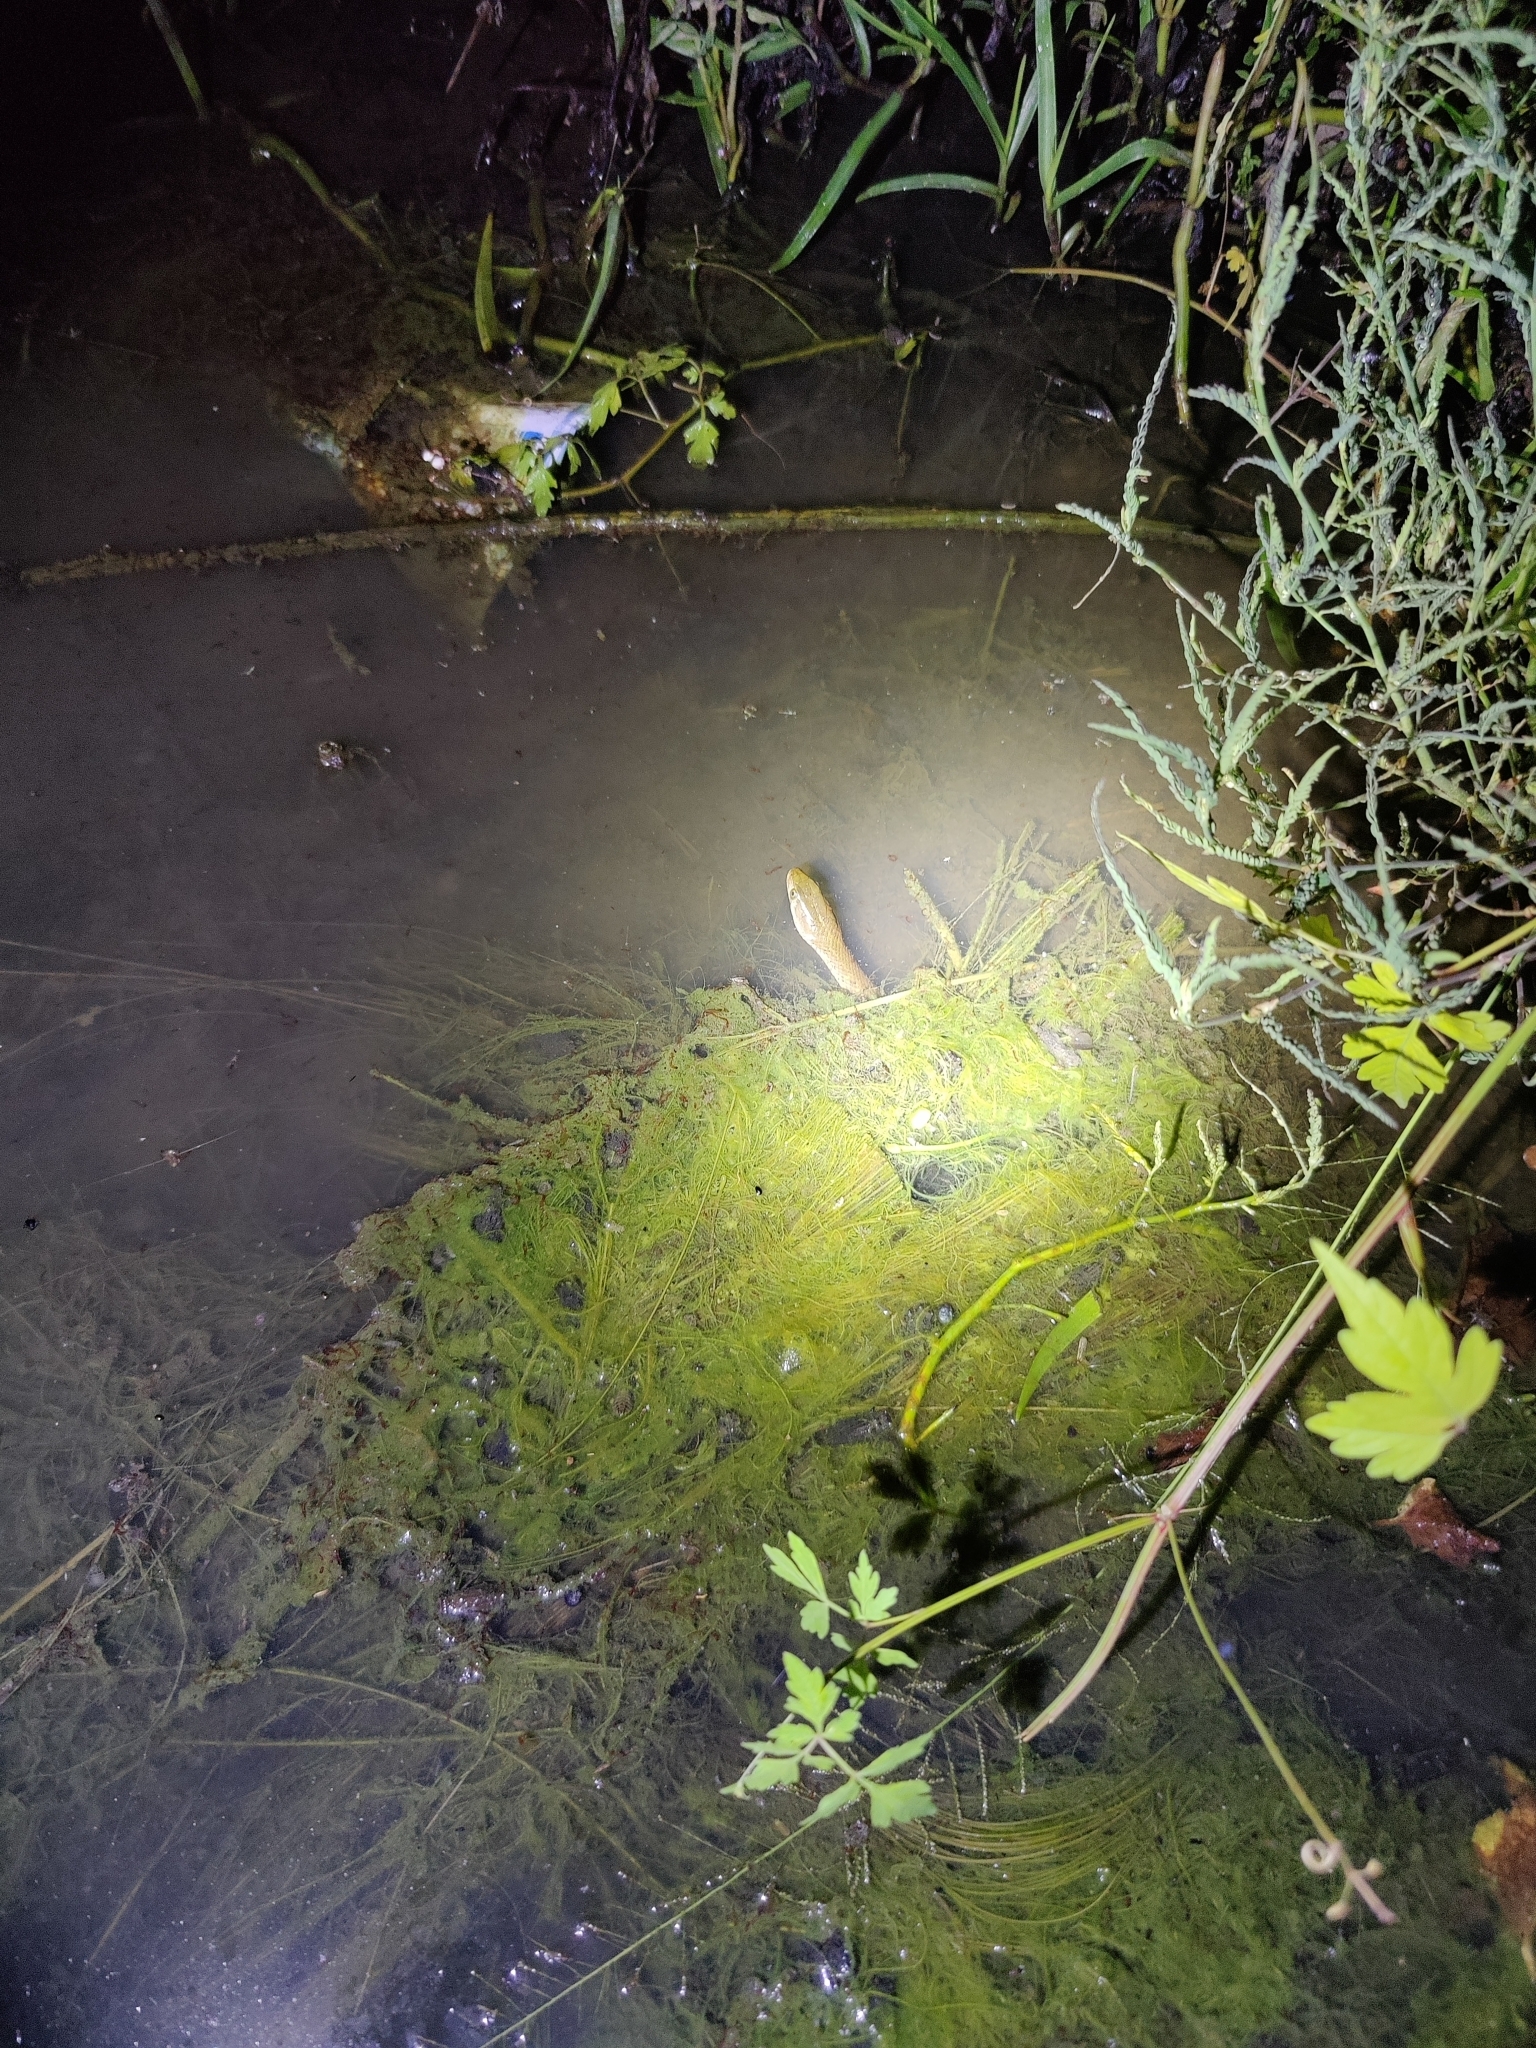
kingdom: Animalia
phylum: Chordata
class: Squamata
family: Colubridae
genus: Fowlea
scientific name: Fowlea piscator
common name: Asiatic water snake
